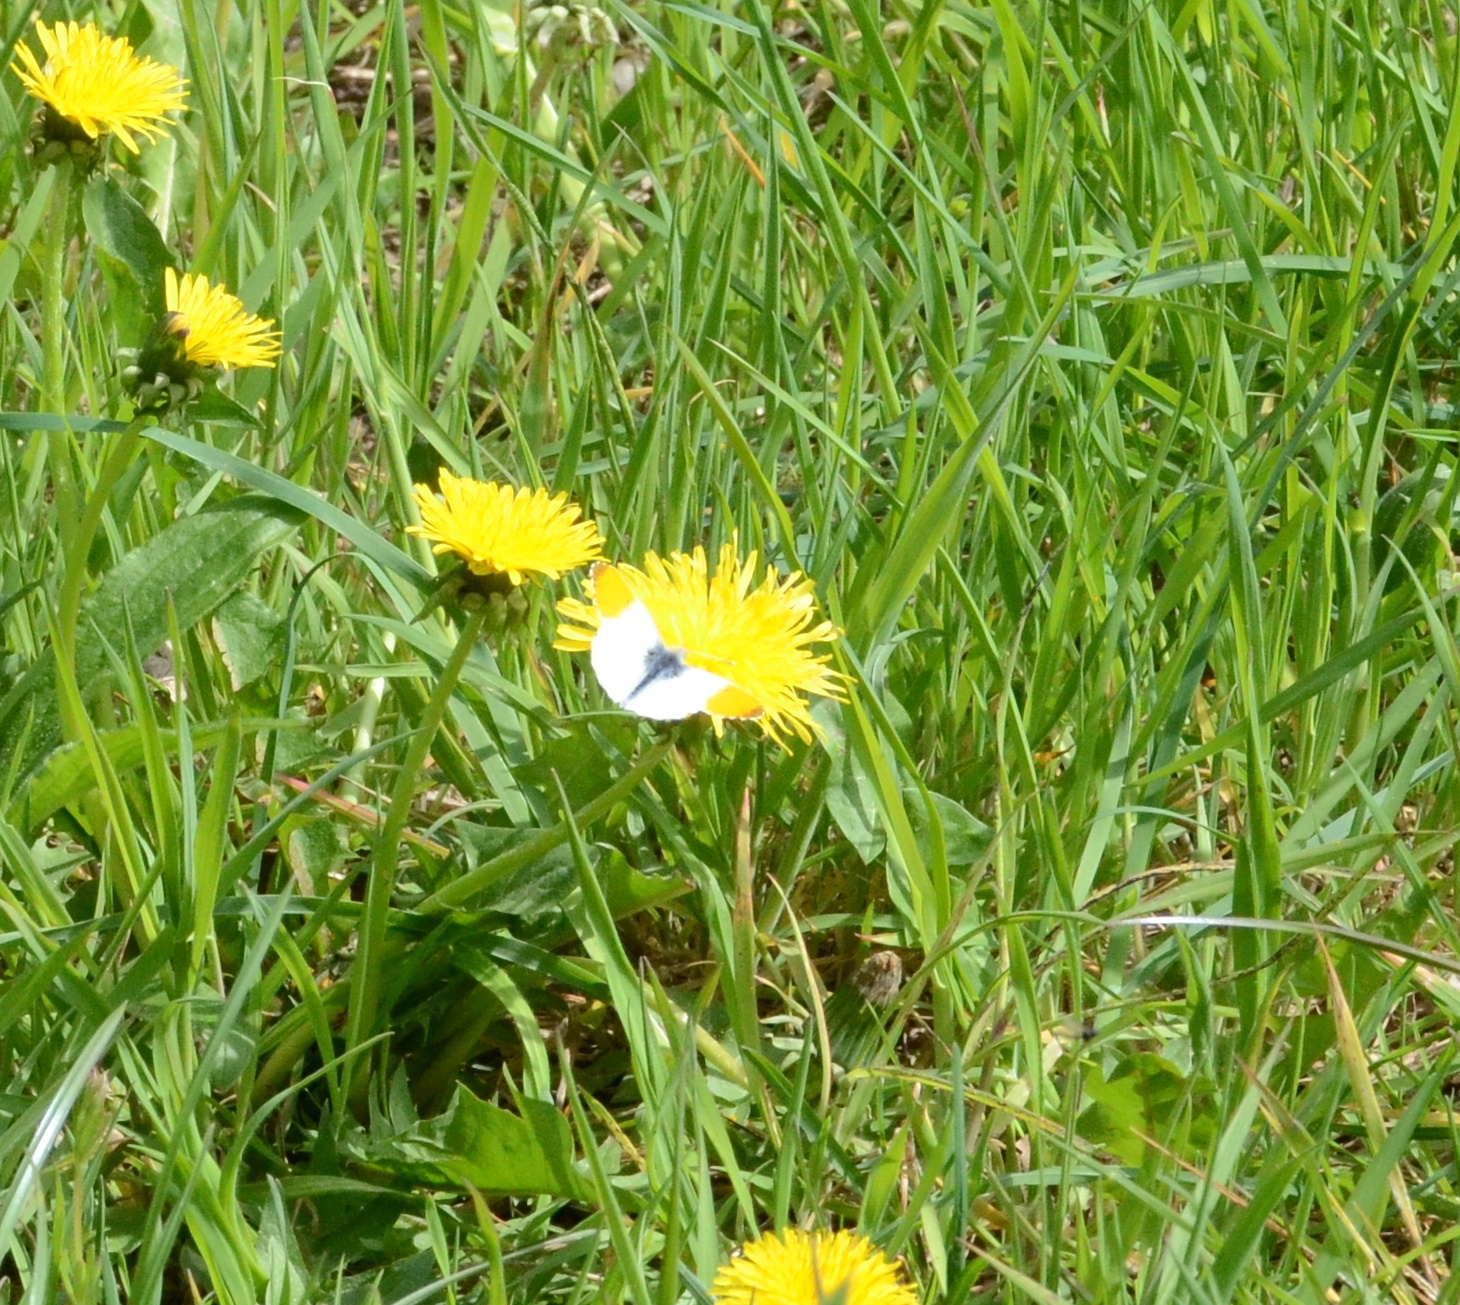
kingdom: Animalia
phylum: Arthropoda
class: Insecta
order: Lepidoptera
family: Pieridae
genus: Anthocharis
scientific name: Anthocharis cardamines
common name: Orange-tip
